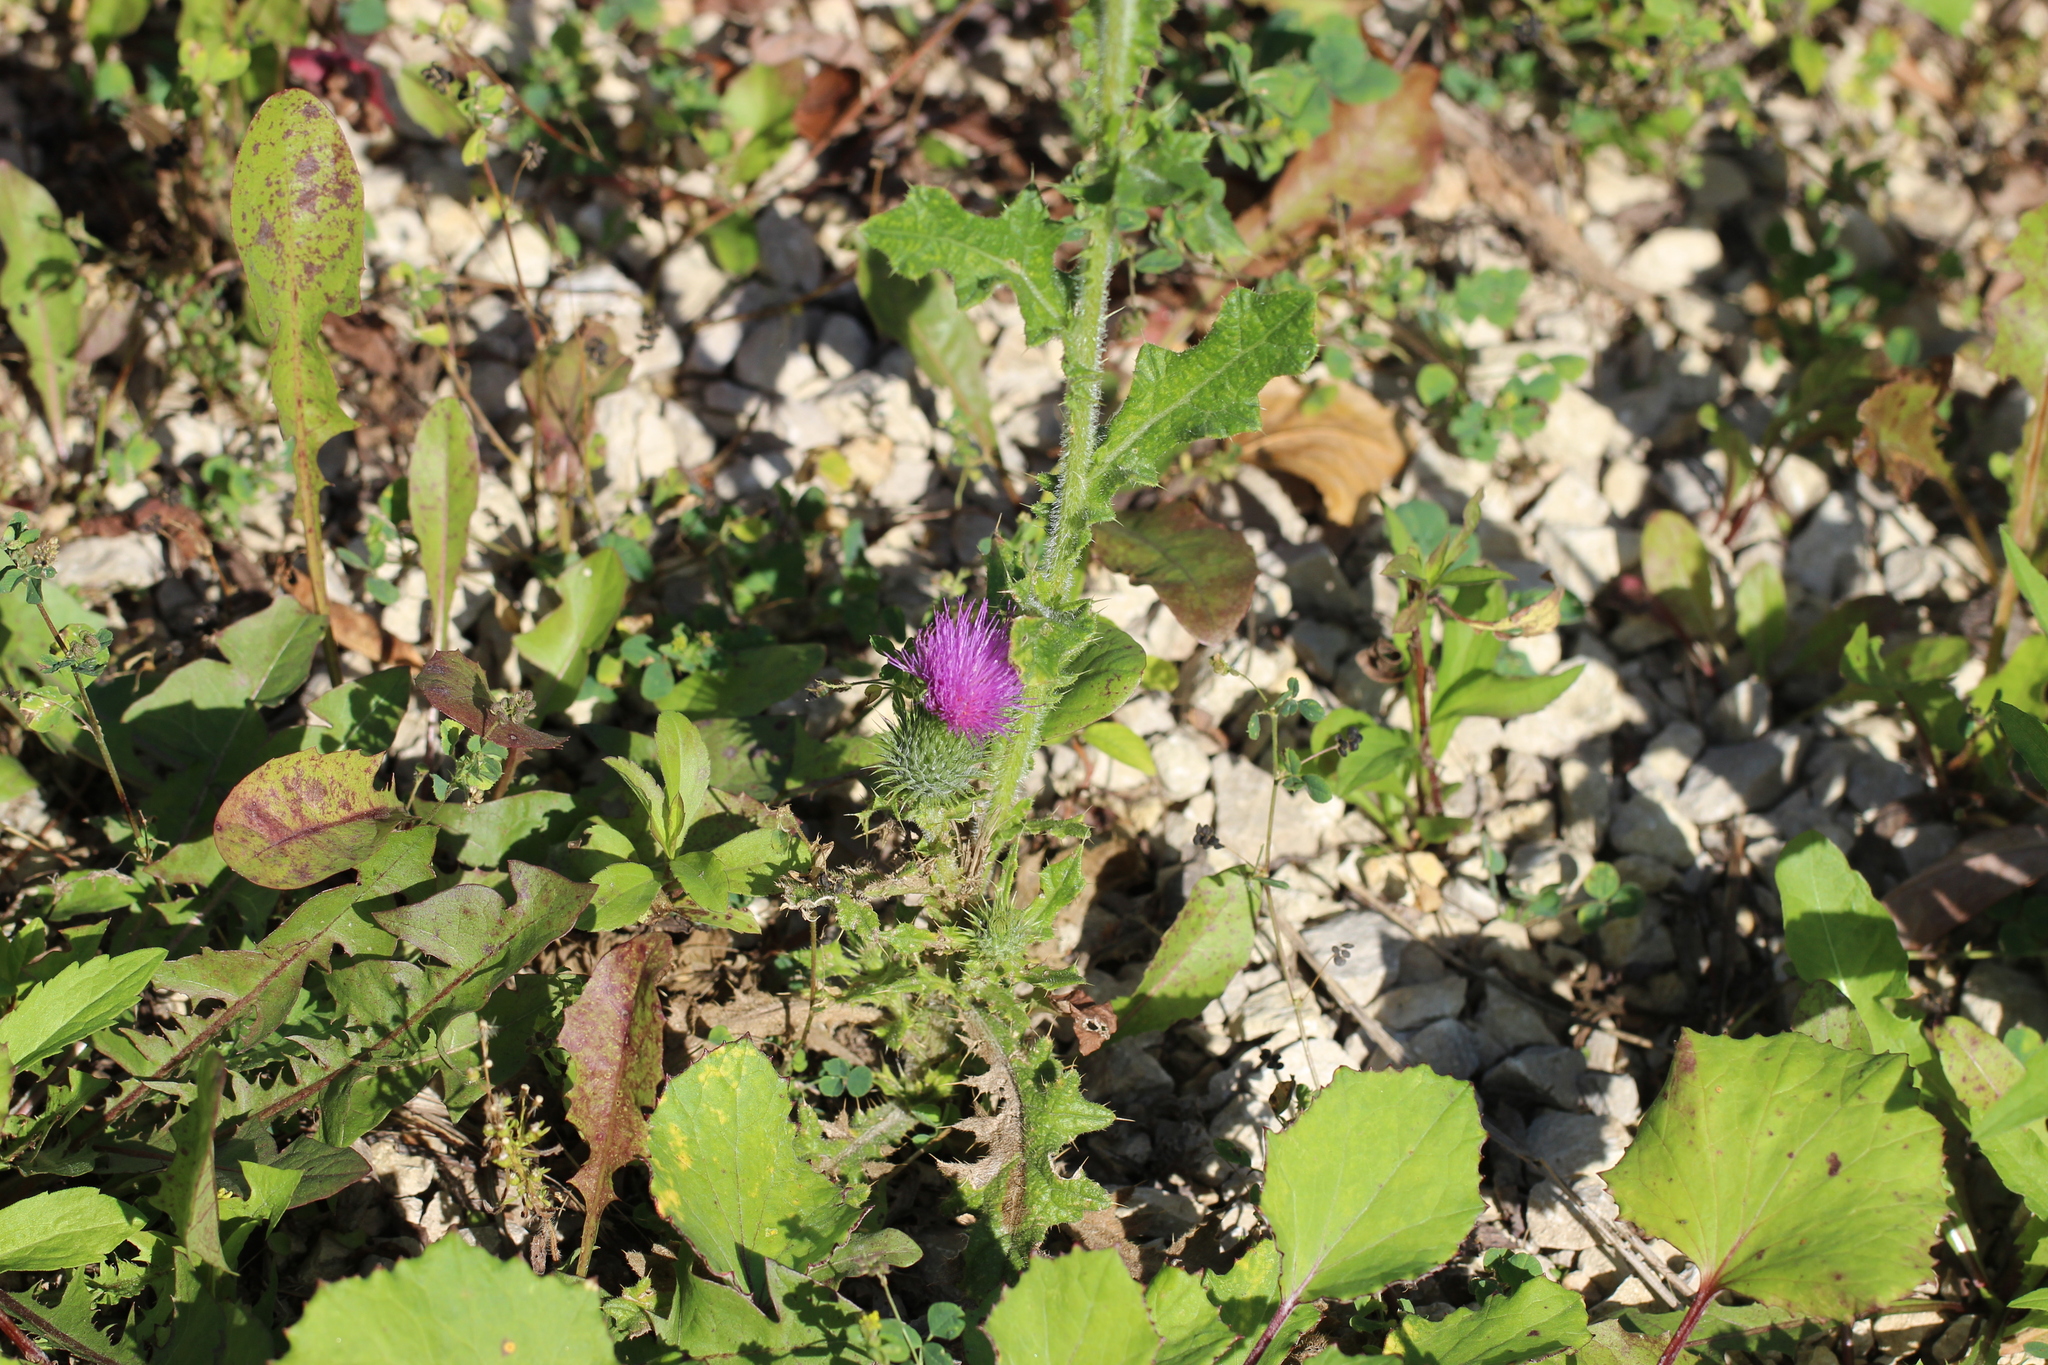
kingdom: Plantae
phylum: Tracheophyta
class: Magnoliopsida
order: Asterales
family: Asteraceae
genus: Cirsium
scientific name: Cirsium vulgare
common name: Bull thistle
